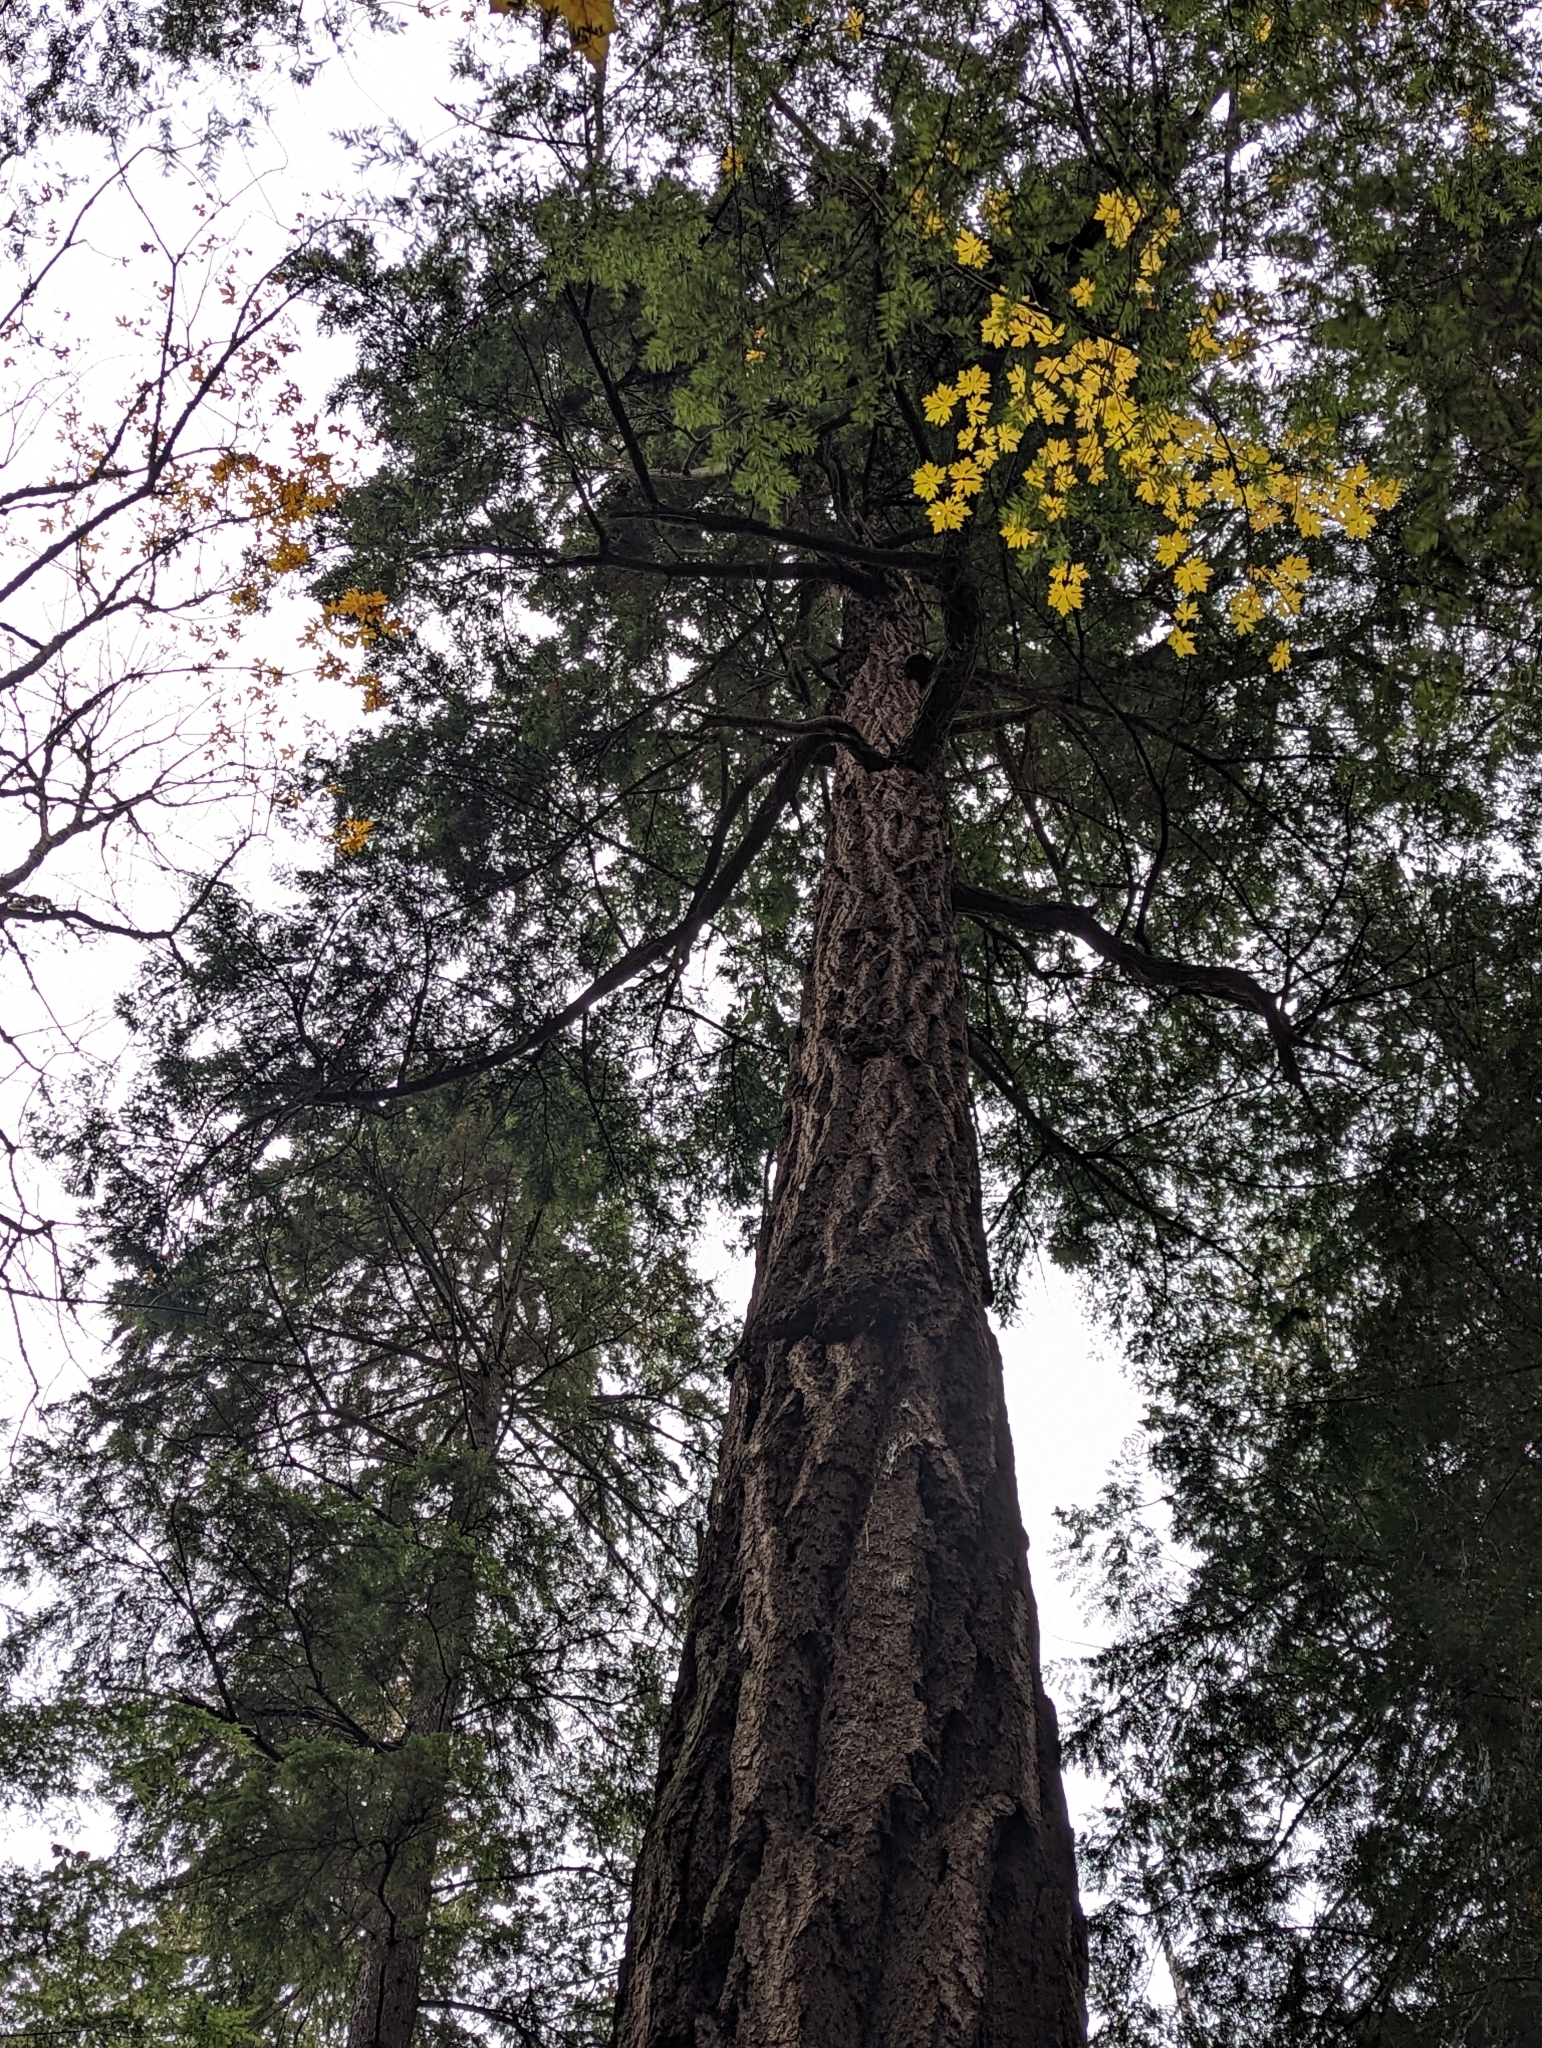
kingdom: Plantae
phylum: Tracheophyta
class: Pinopsida
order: Pinales
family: Pinaceae
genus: Pseudotsuga
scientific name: Pseudotsuga menziesii
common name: Douglas fir
